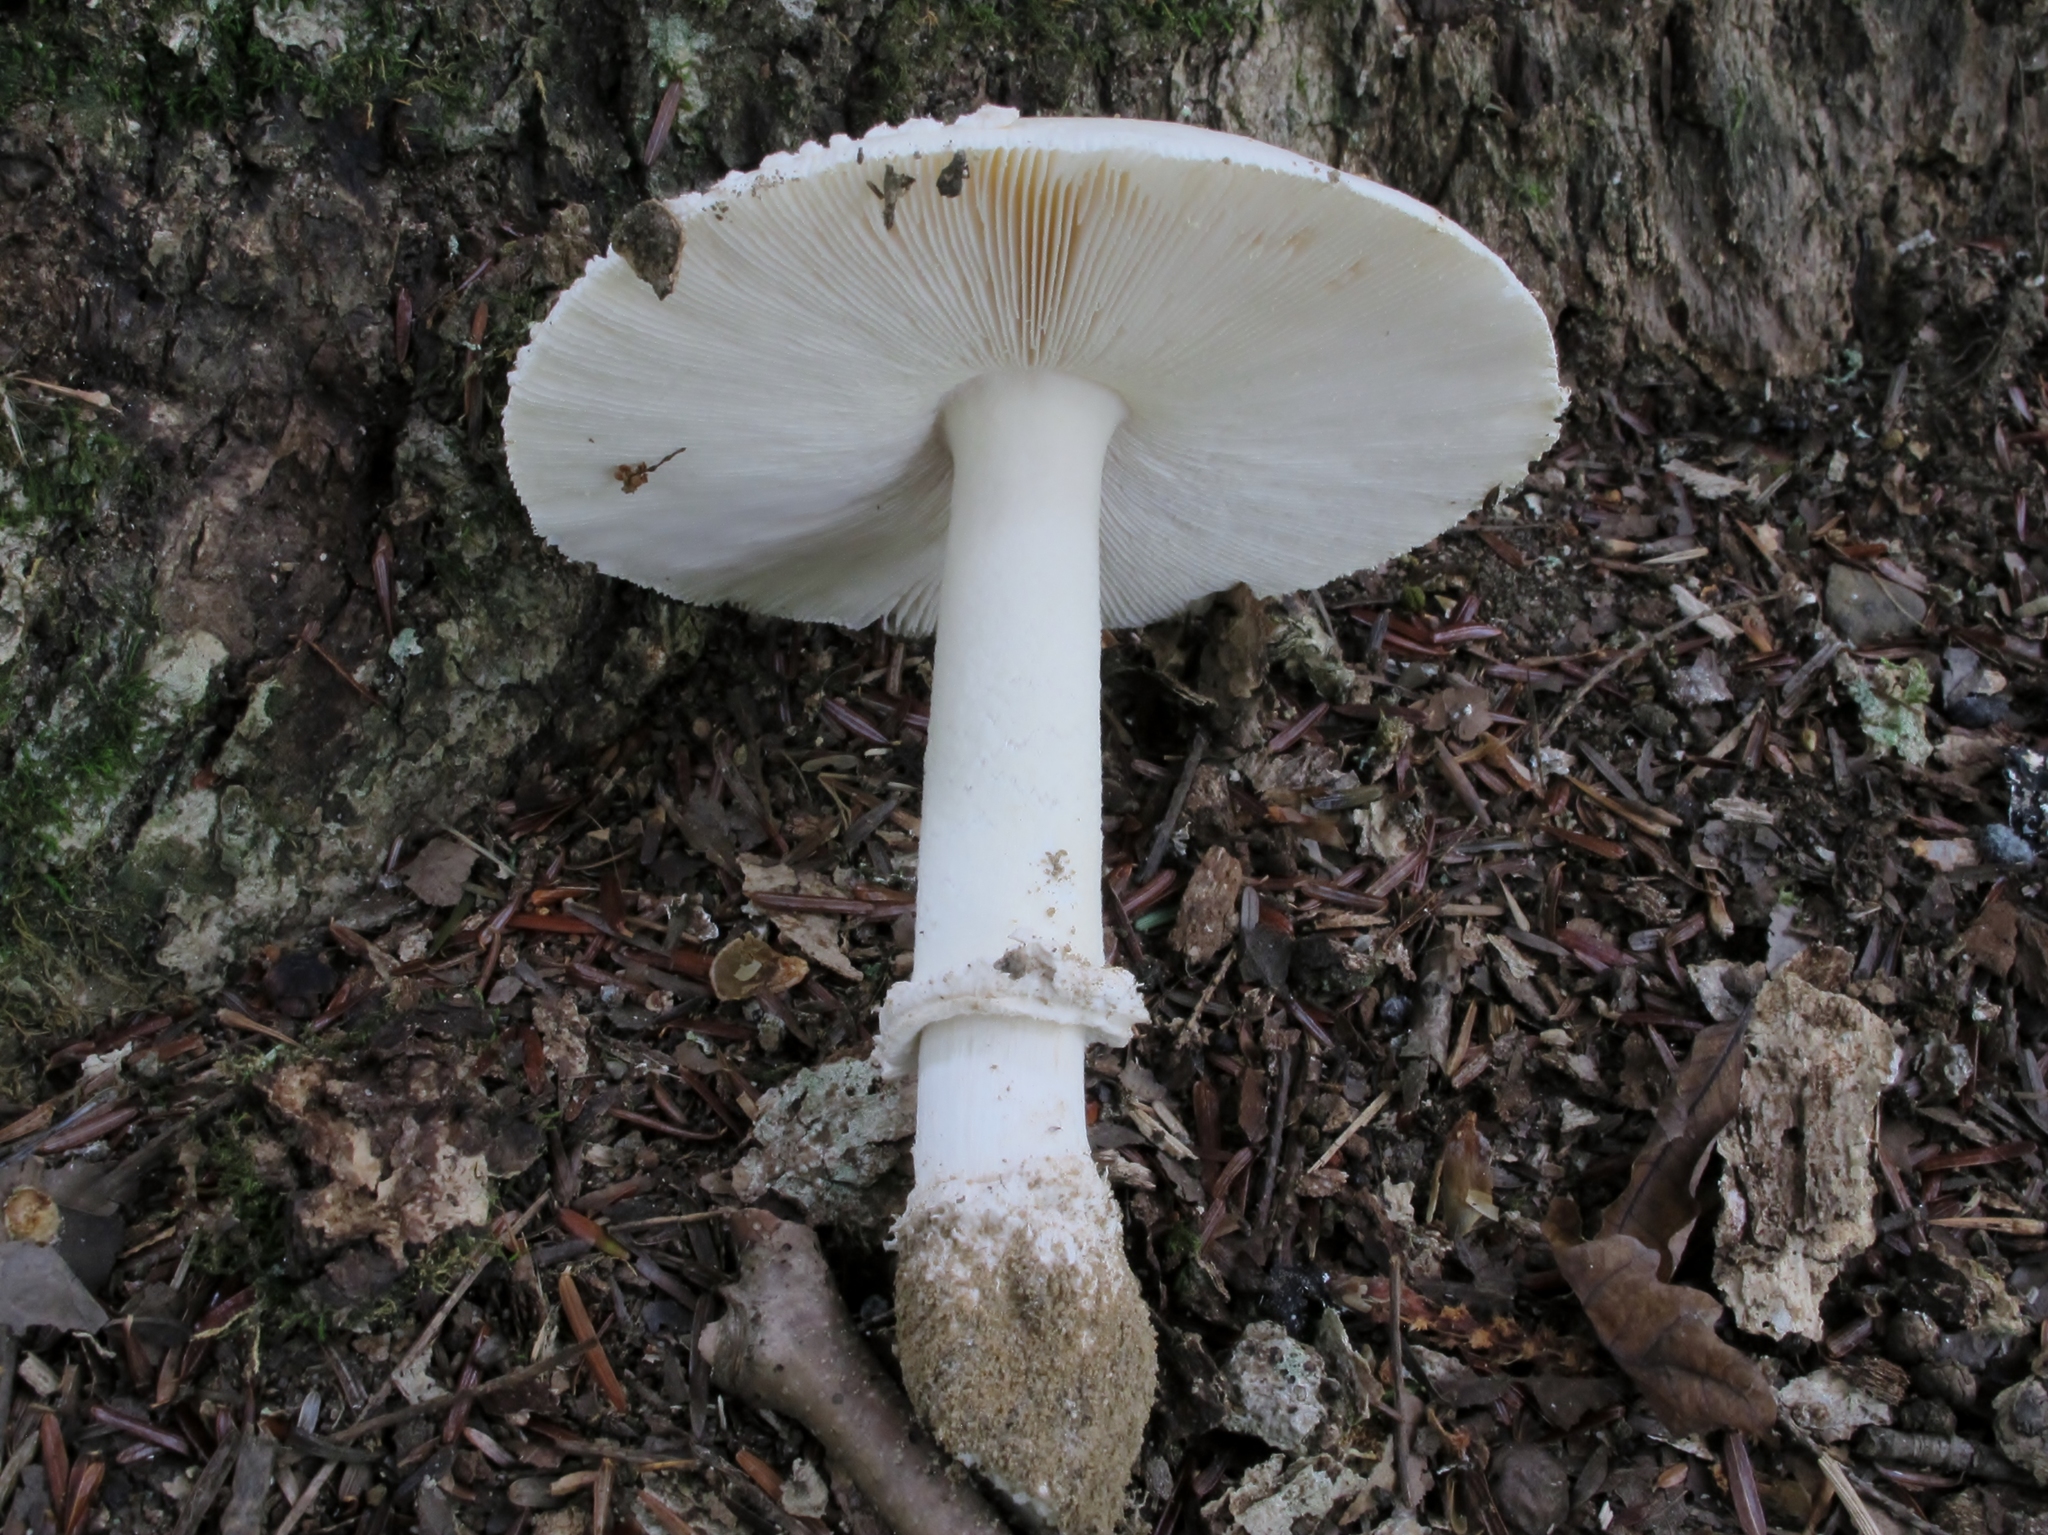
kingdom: Fungi
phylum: Basidiomycota
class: Agaricomycetes
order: Agaricales
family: Amanitaceae
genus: Amanita
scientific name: Amanita multisquamosa
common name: Small funnel-veil amanita
